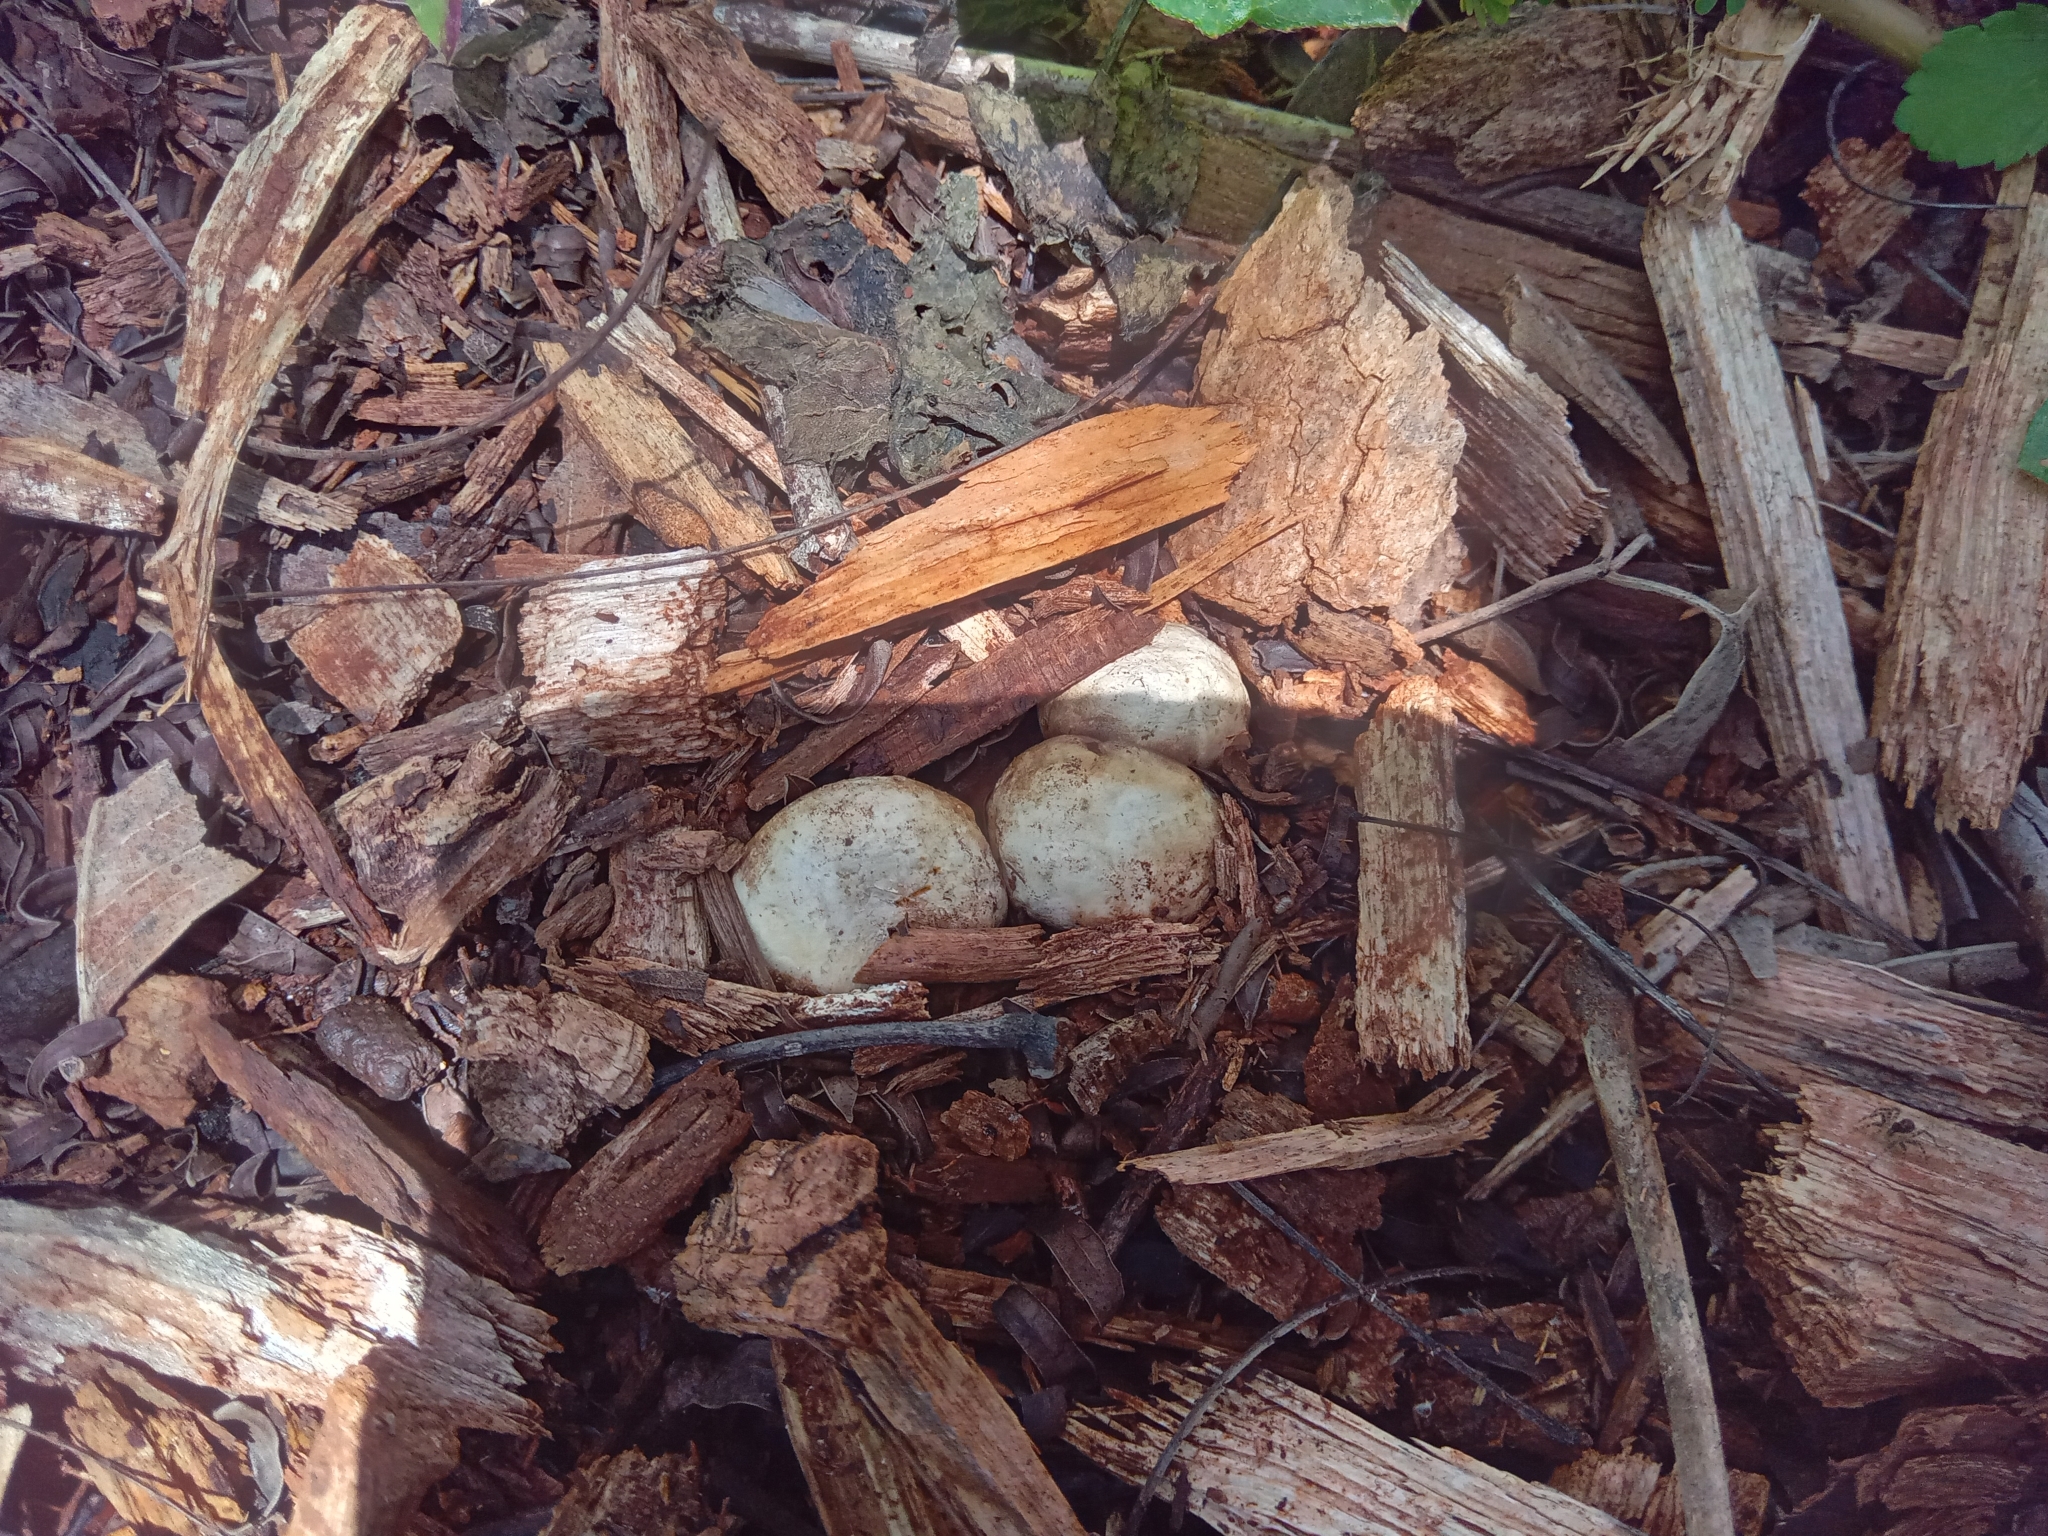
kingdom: Fungi
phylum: Basidiomycota
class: Agaricomycetes
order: Phallales
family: Phallaceae
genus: Lysurus
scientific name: Lysurus cruciatus
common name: Lizard's claw
